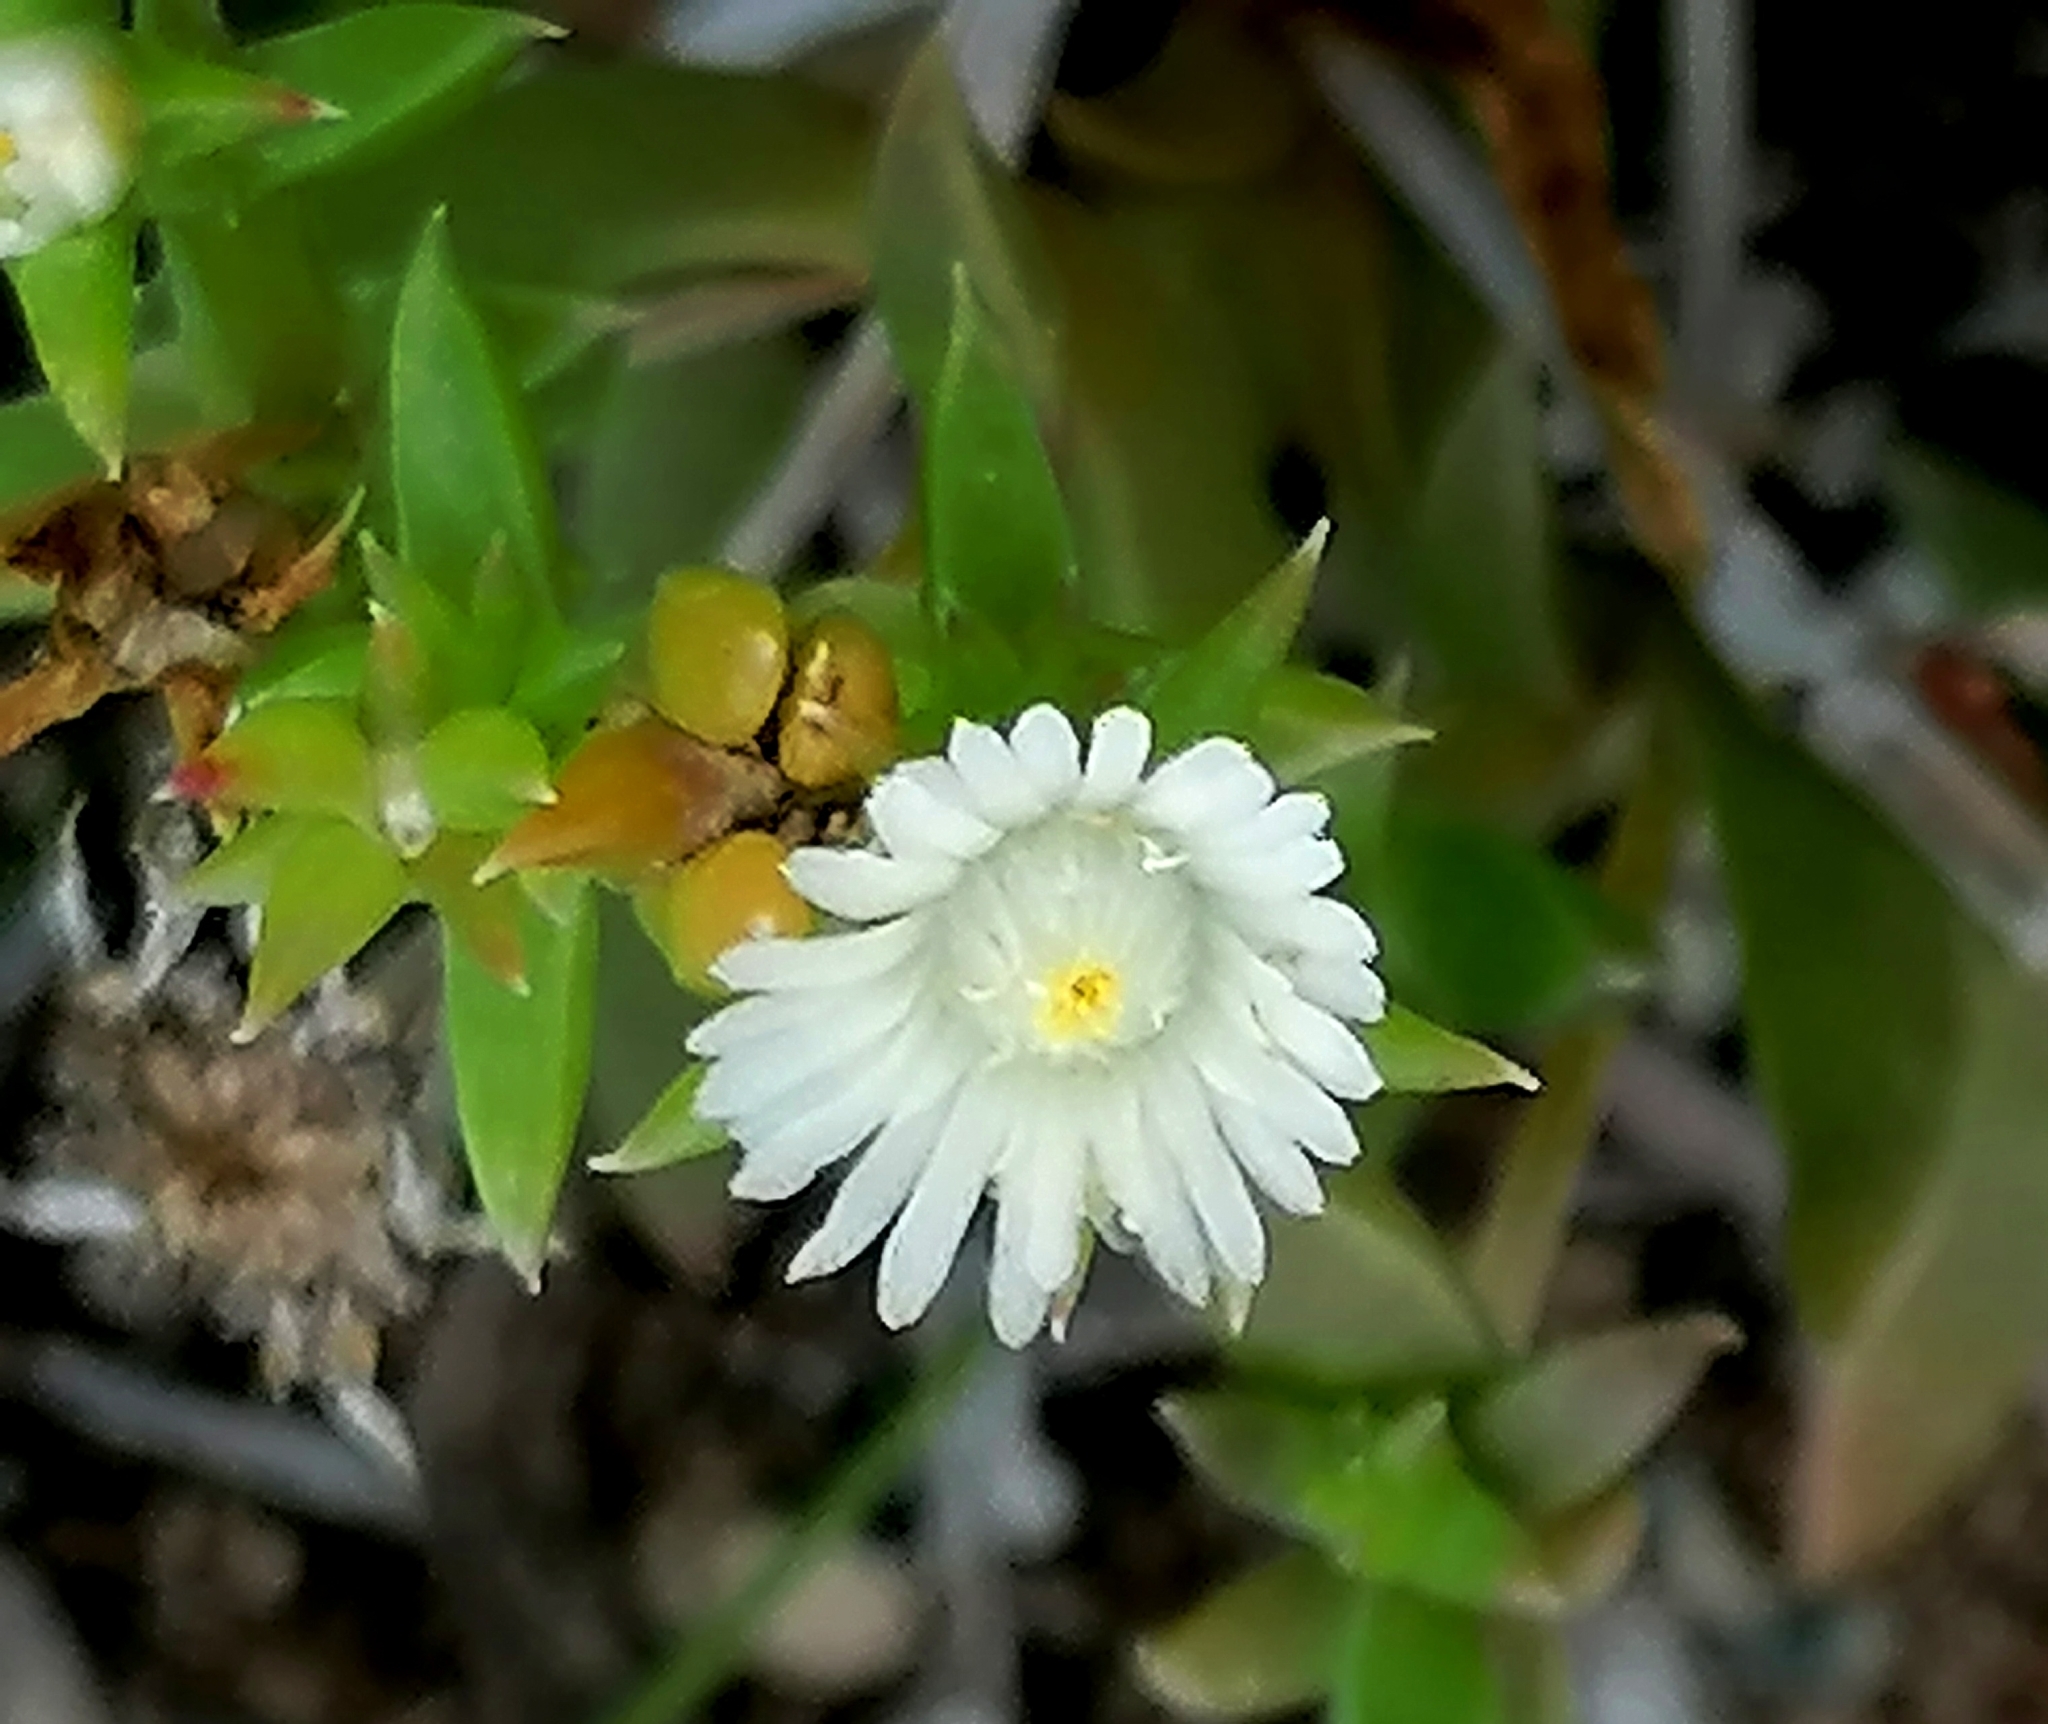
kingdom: Plantae
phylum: Tracheophyta
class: Magnoliopsida
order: Caryophyllales
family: Aizoaceae
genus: Delosperma
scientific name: Delosperma inconspicuum
